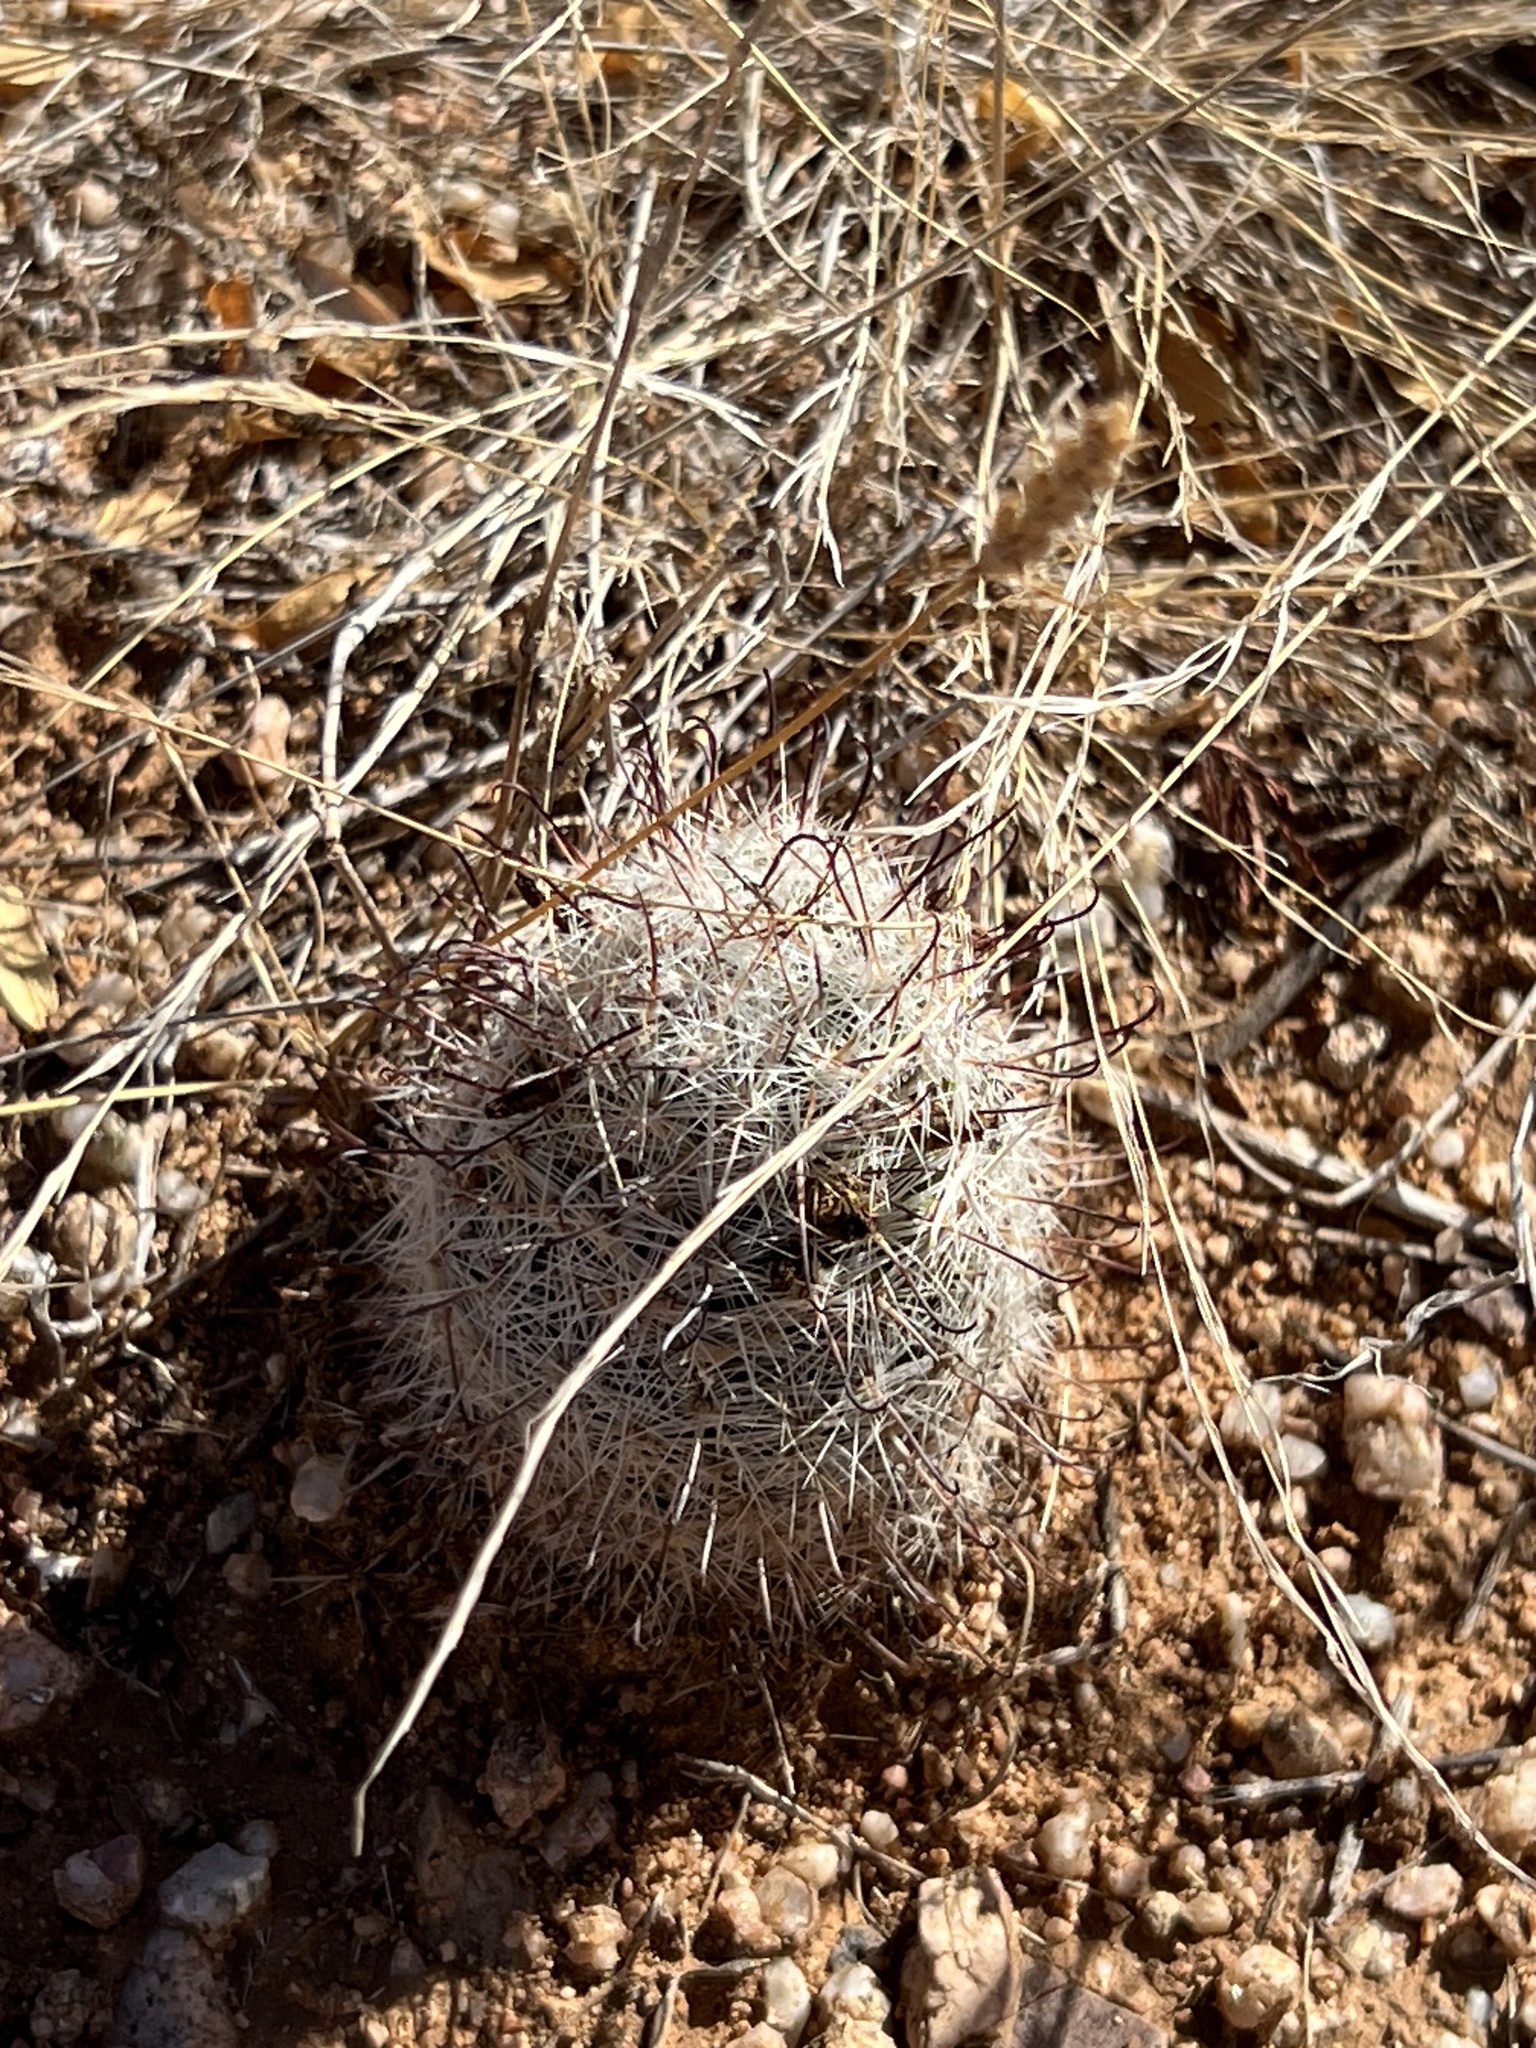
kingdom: Plantae
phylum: Tracheophyta
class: Magnoliopsida
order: Caryophyllales
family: Cactaceae
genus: Cochemiea
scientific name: Cochemiea grahamii
